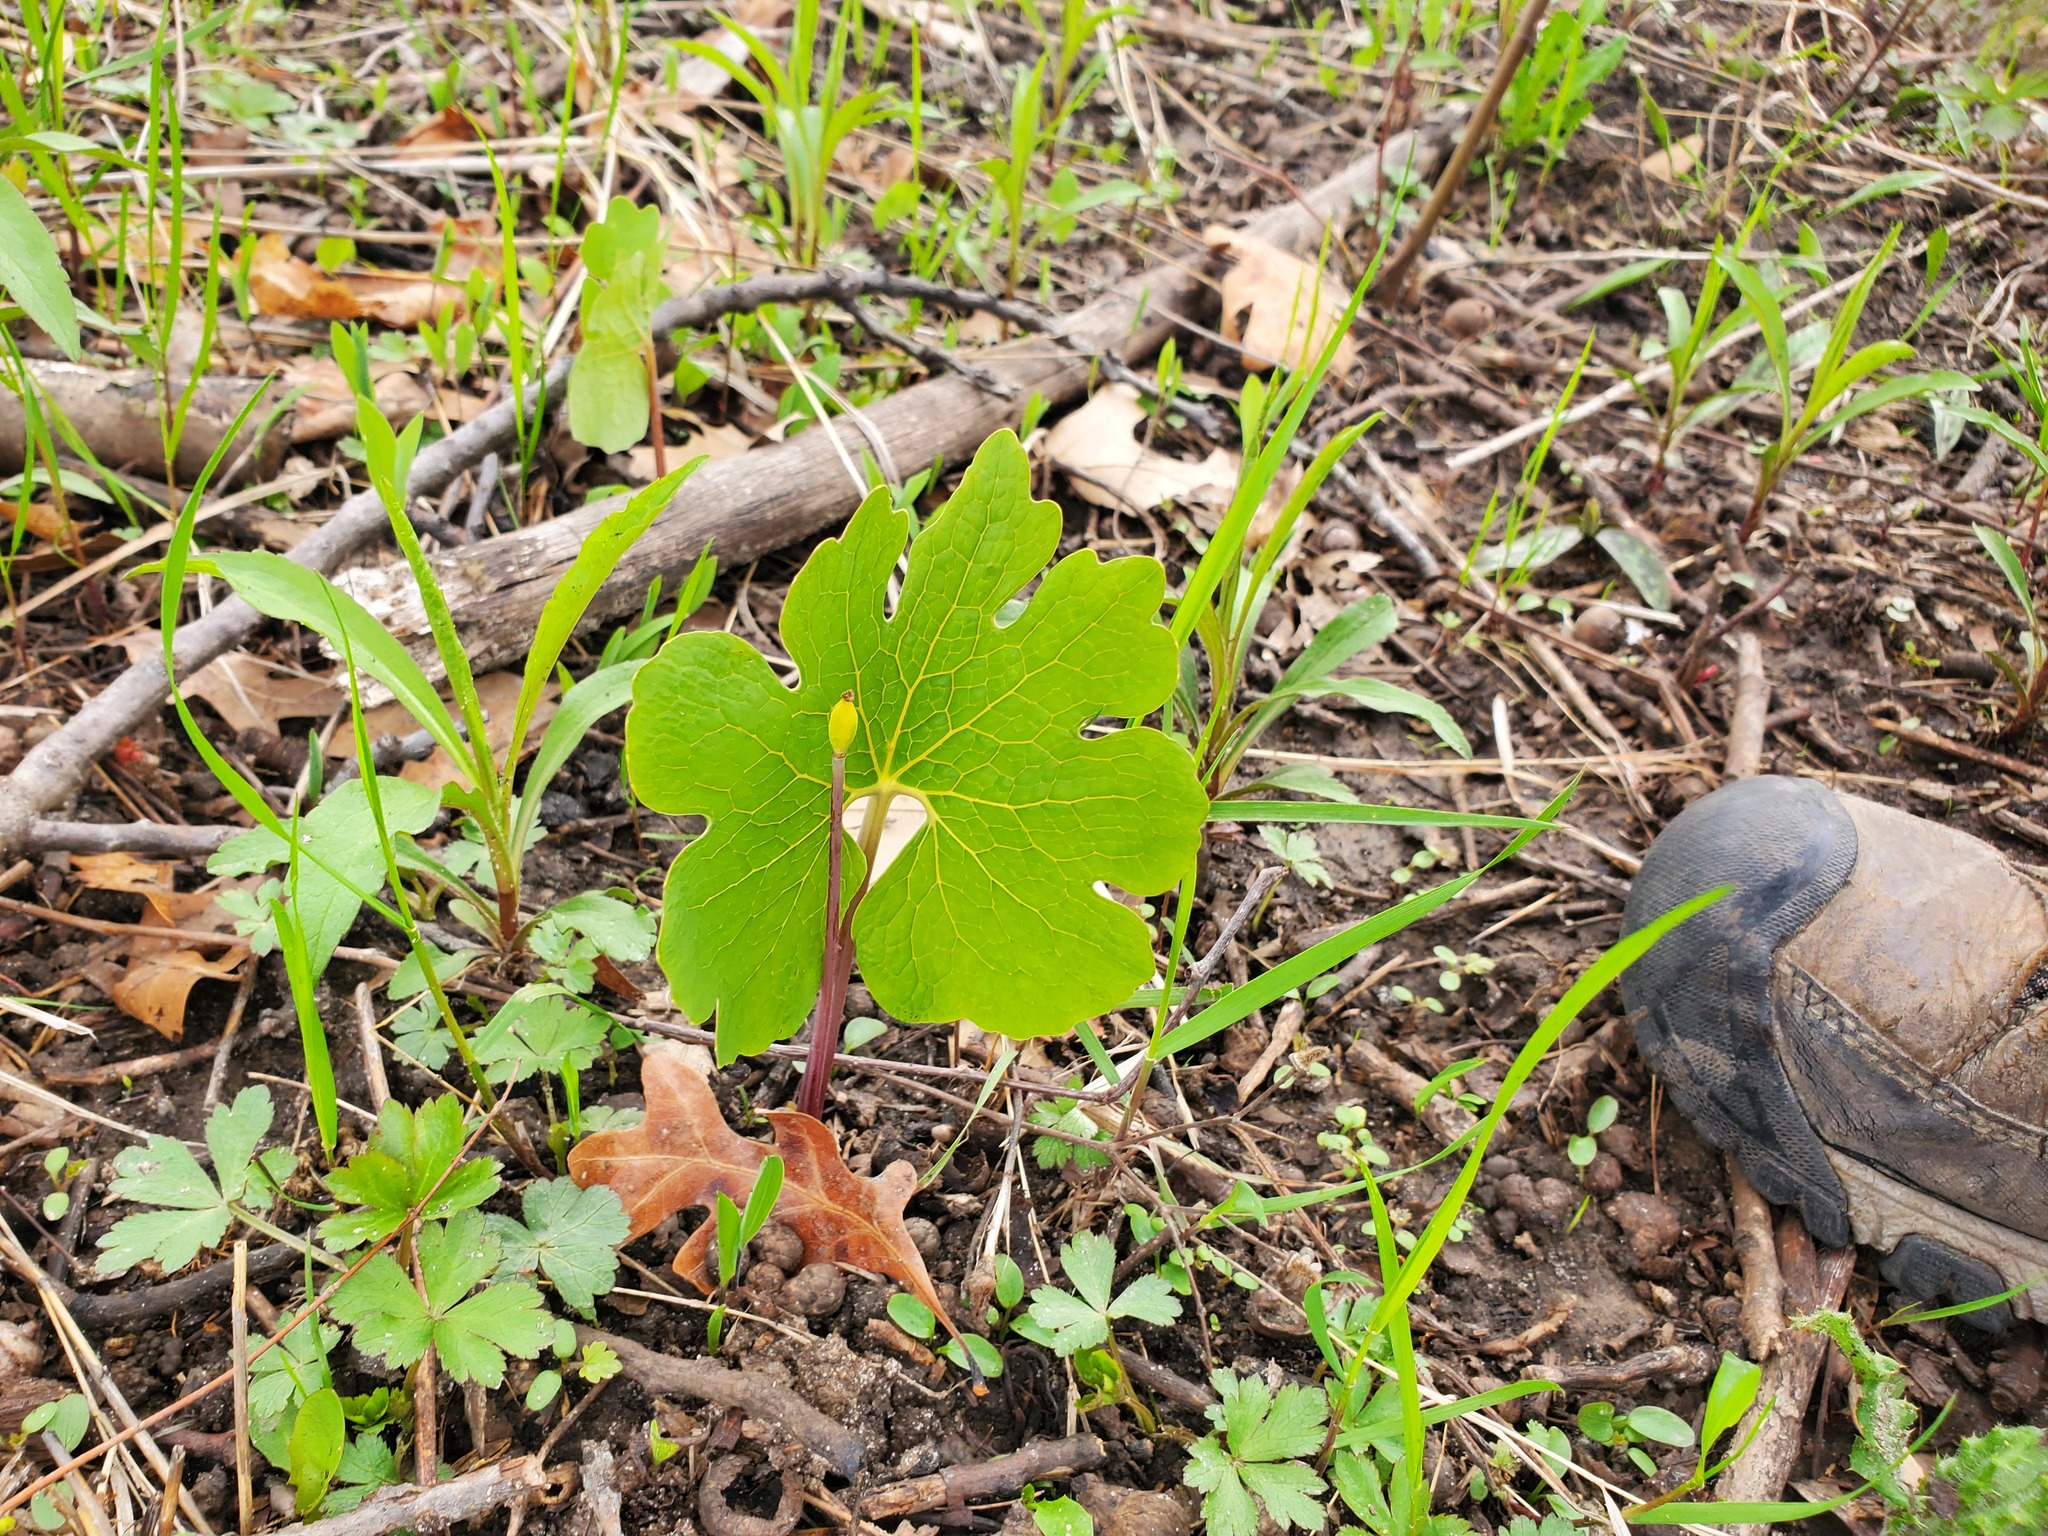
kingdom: Plantae
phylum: Tracheophyta
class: Magnoliopsida
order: Ranunculales
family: Papaveraceae
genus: Sanguinaria
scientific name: Sanguinaria canadensis
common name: Bloodroot
